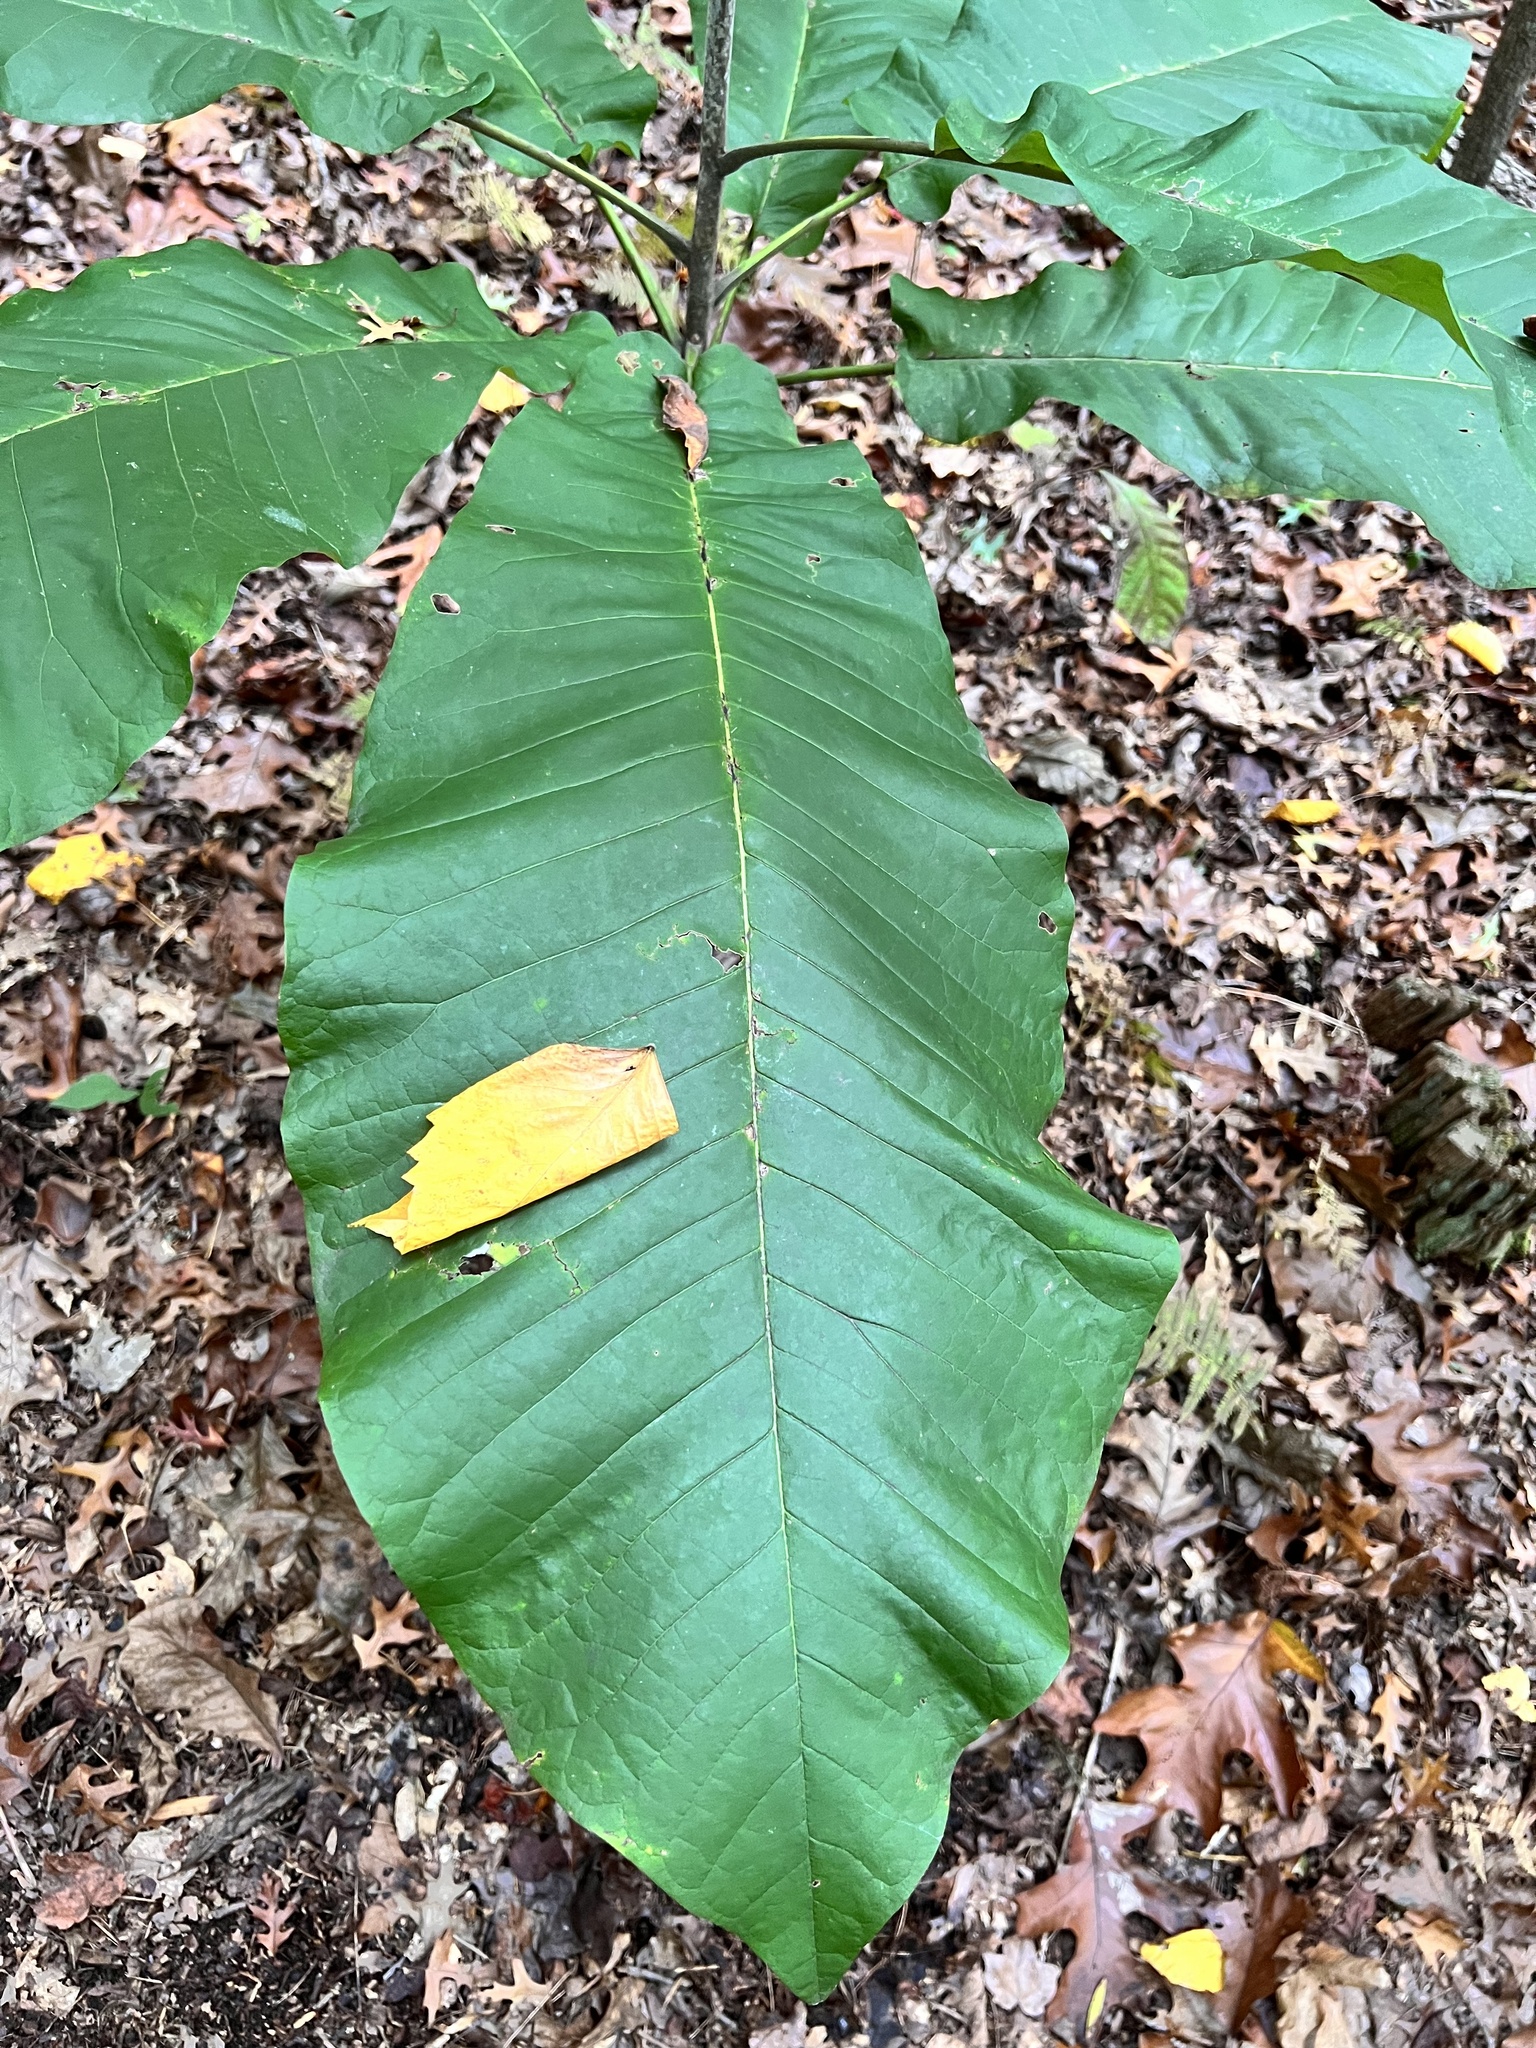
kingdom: Plantae
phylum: Tracheophyta
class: Magnoliopsida
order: Magnoliales
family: Magnoliaceae
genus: Magnolia
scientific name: Magnolia macrophylla
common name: Big-leaf magnolia
